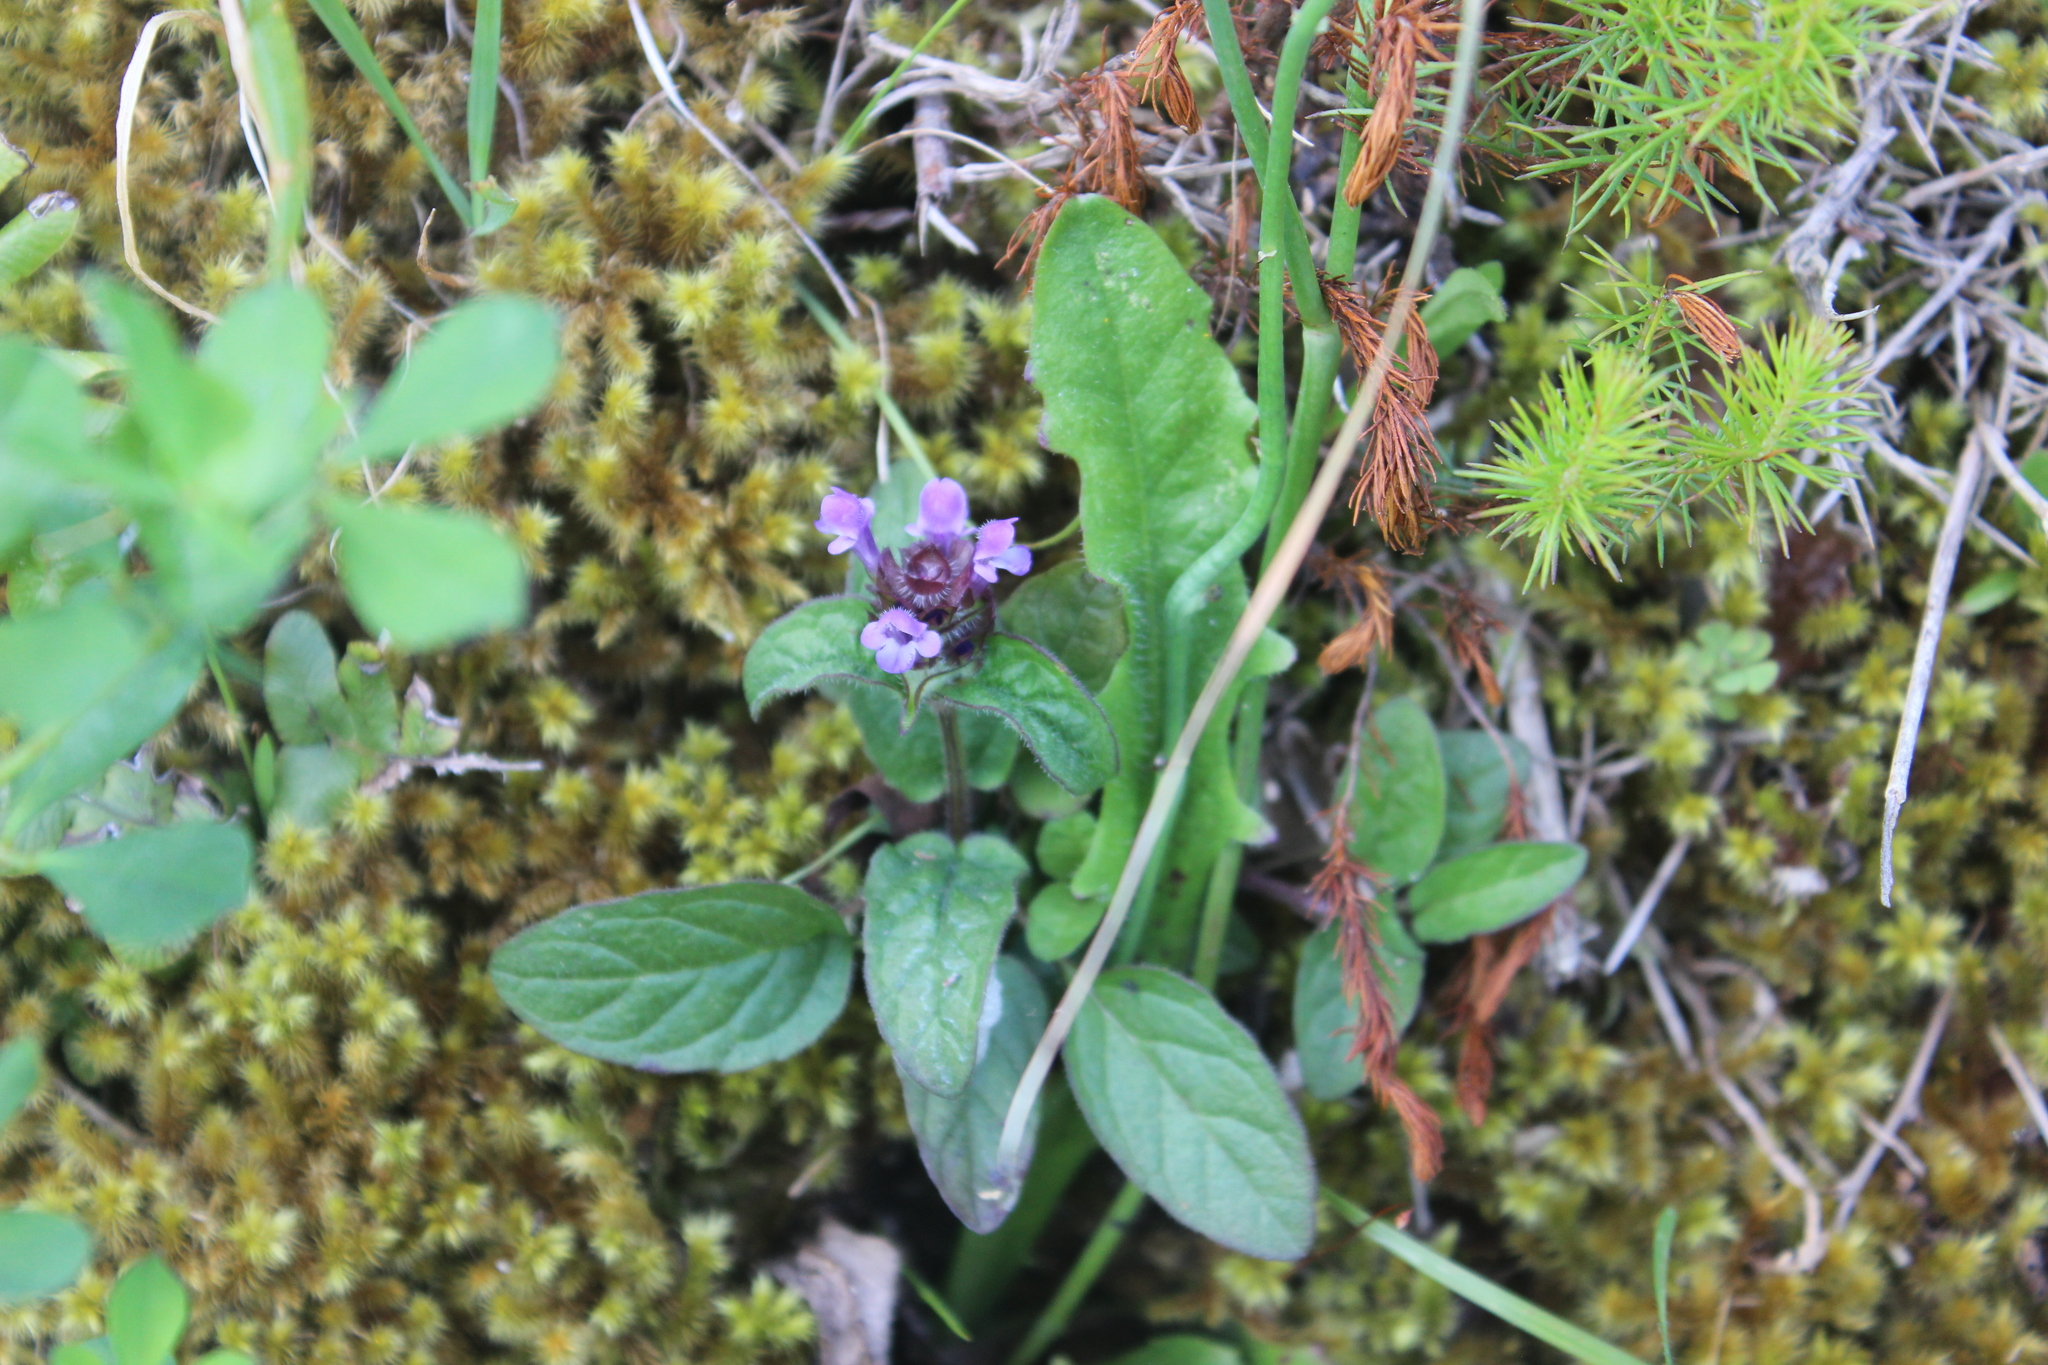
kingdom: Plantae
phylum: Tracheophyta
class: Magnoliopsida
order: Lamiales
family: Lamiaceae
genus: Prunella
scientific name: Prunella vulgaris
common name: Heal-all
